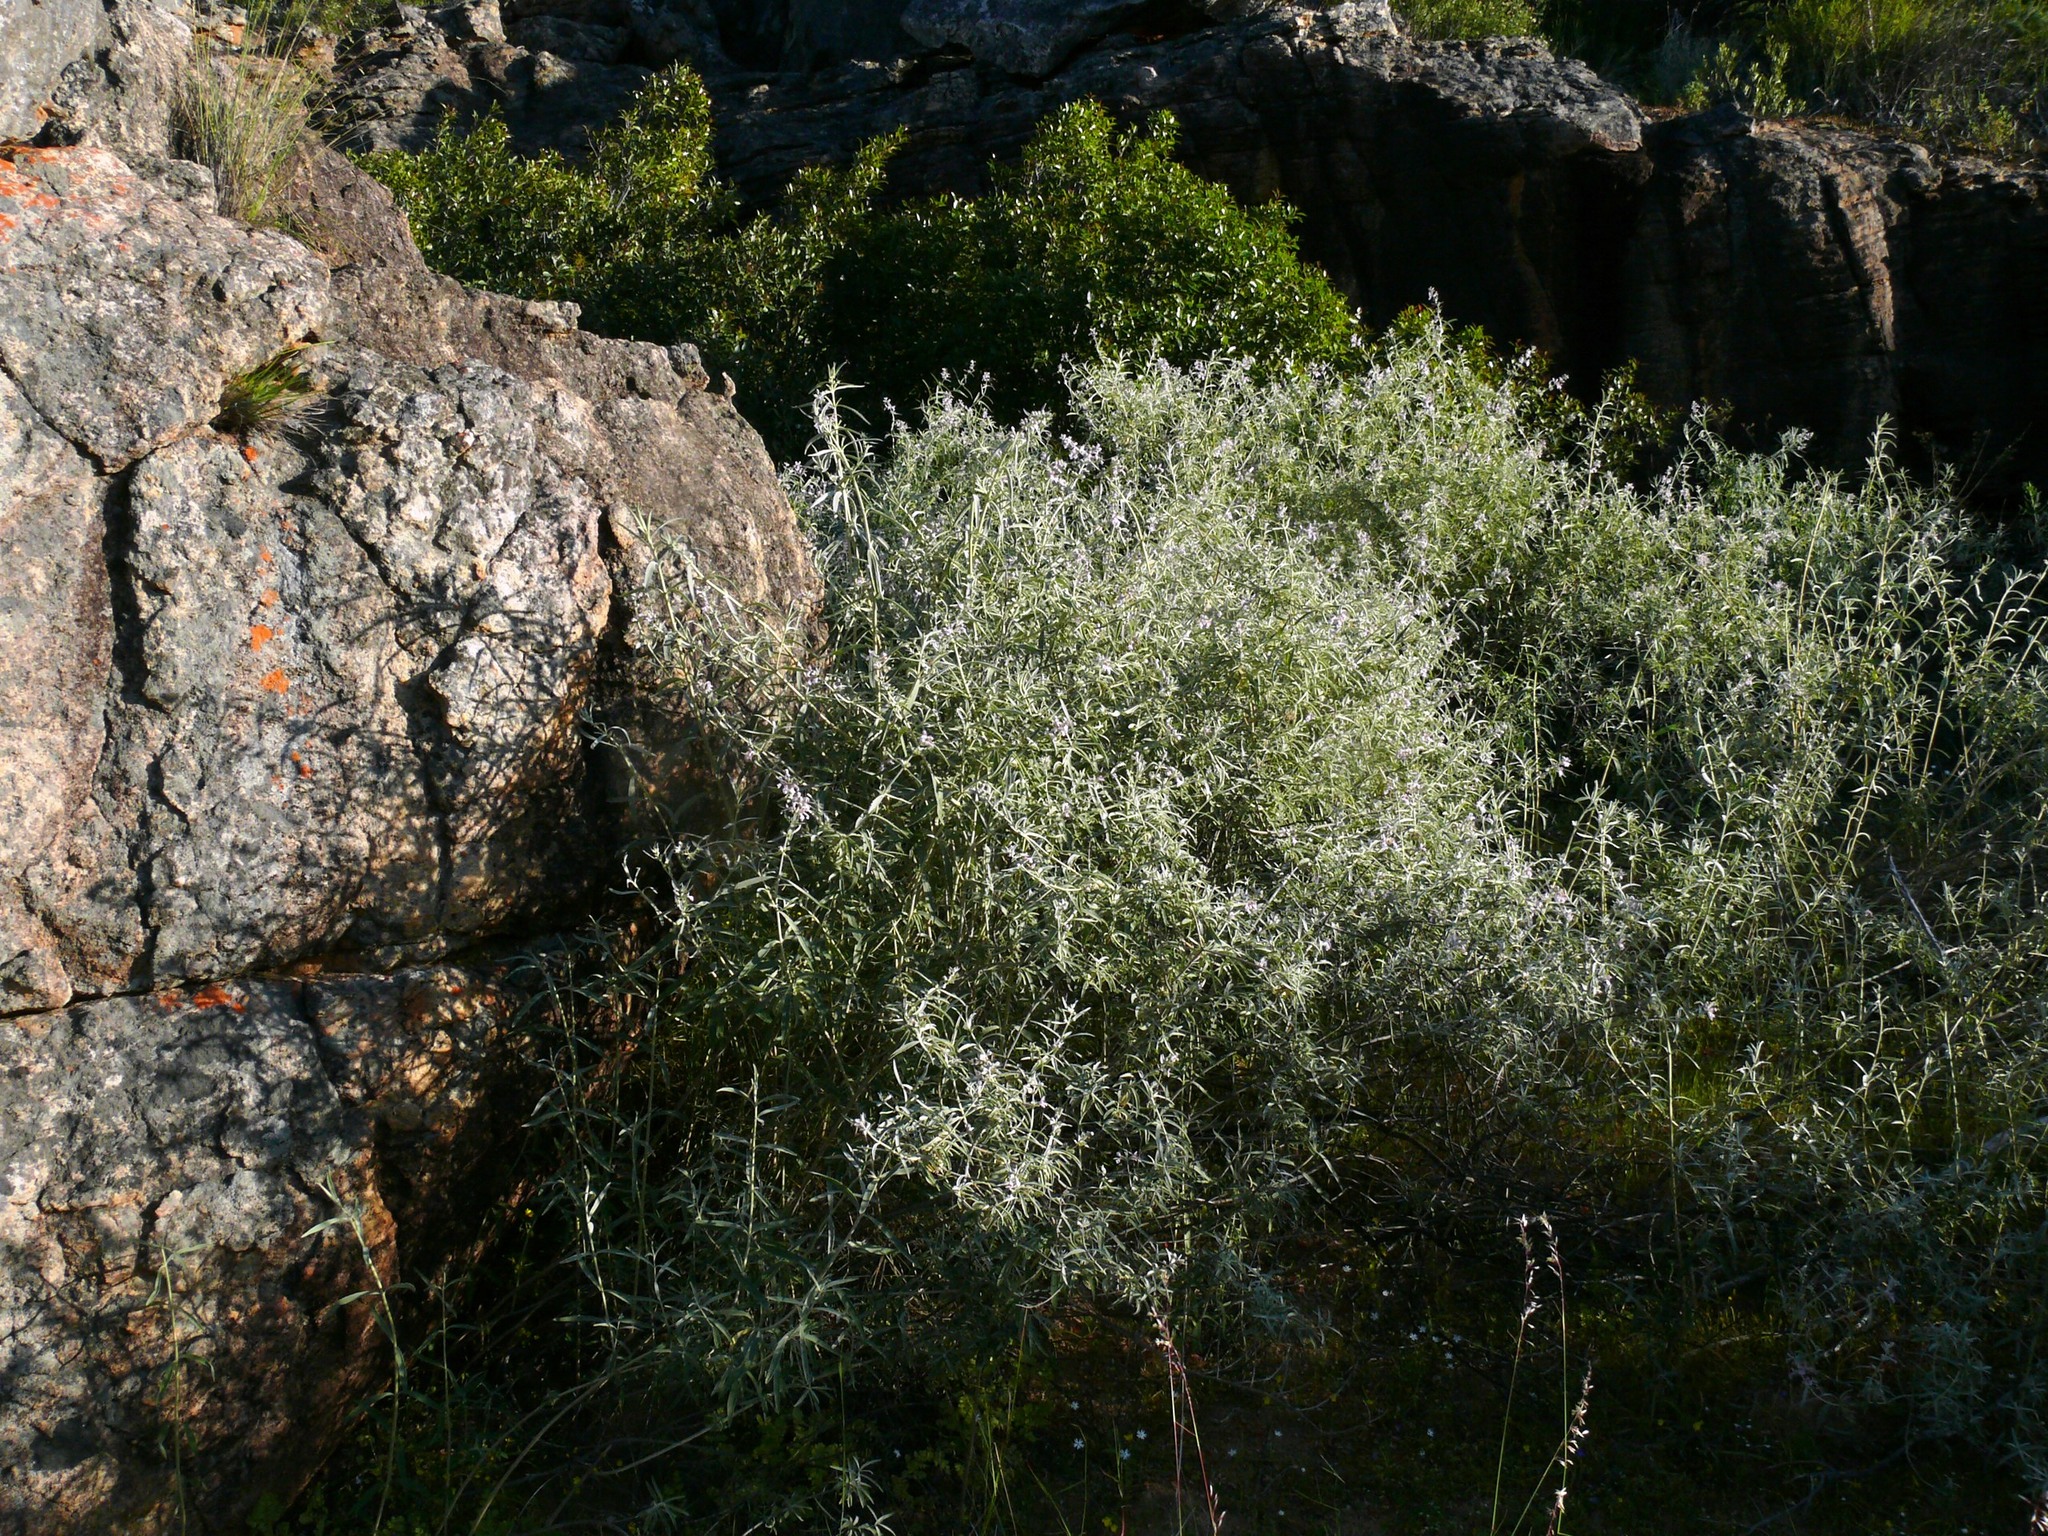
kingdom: Plantae
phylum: Tracheophyta
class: Magnoliopsida
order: Lamiales
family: Lamiaceae
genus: Stachys
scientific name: Stachys rugosa
